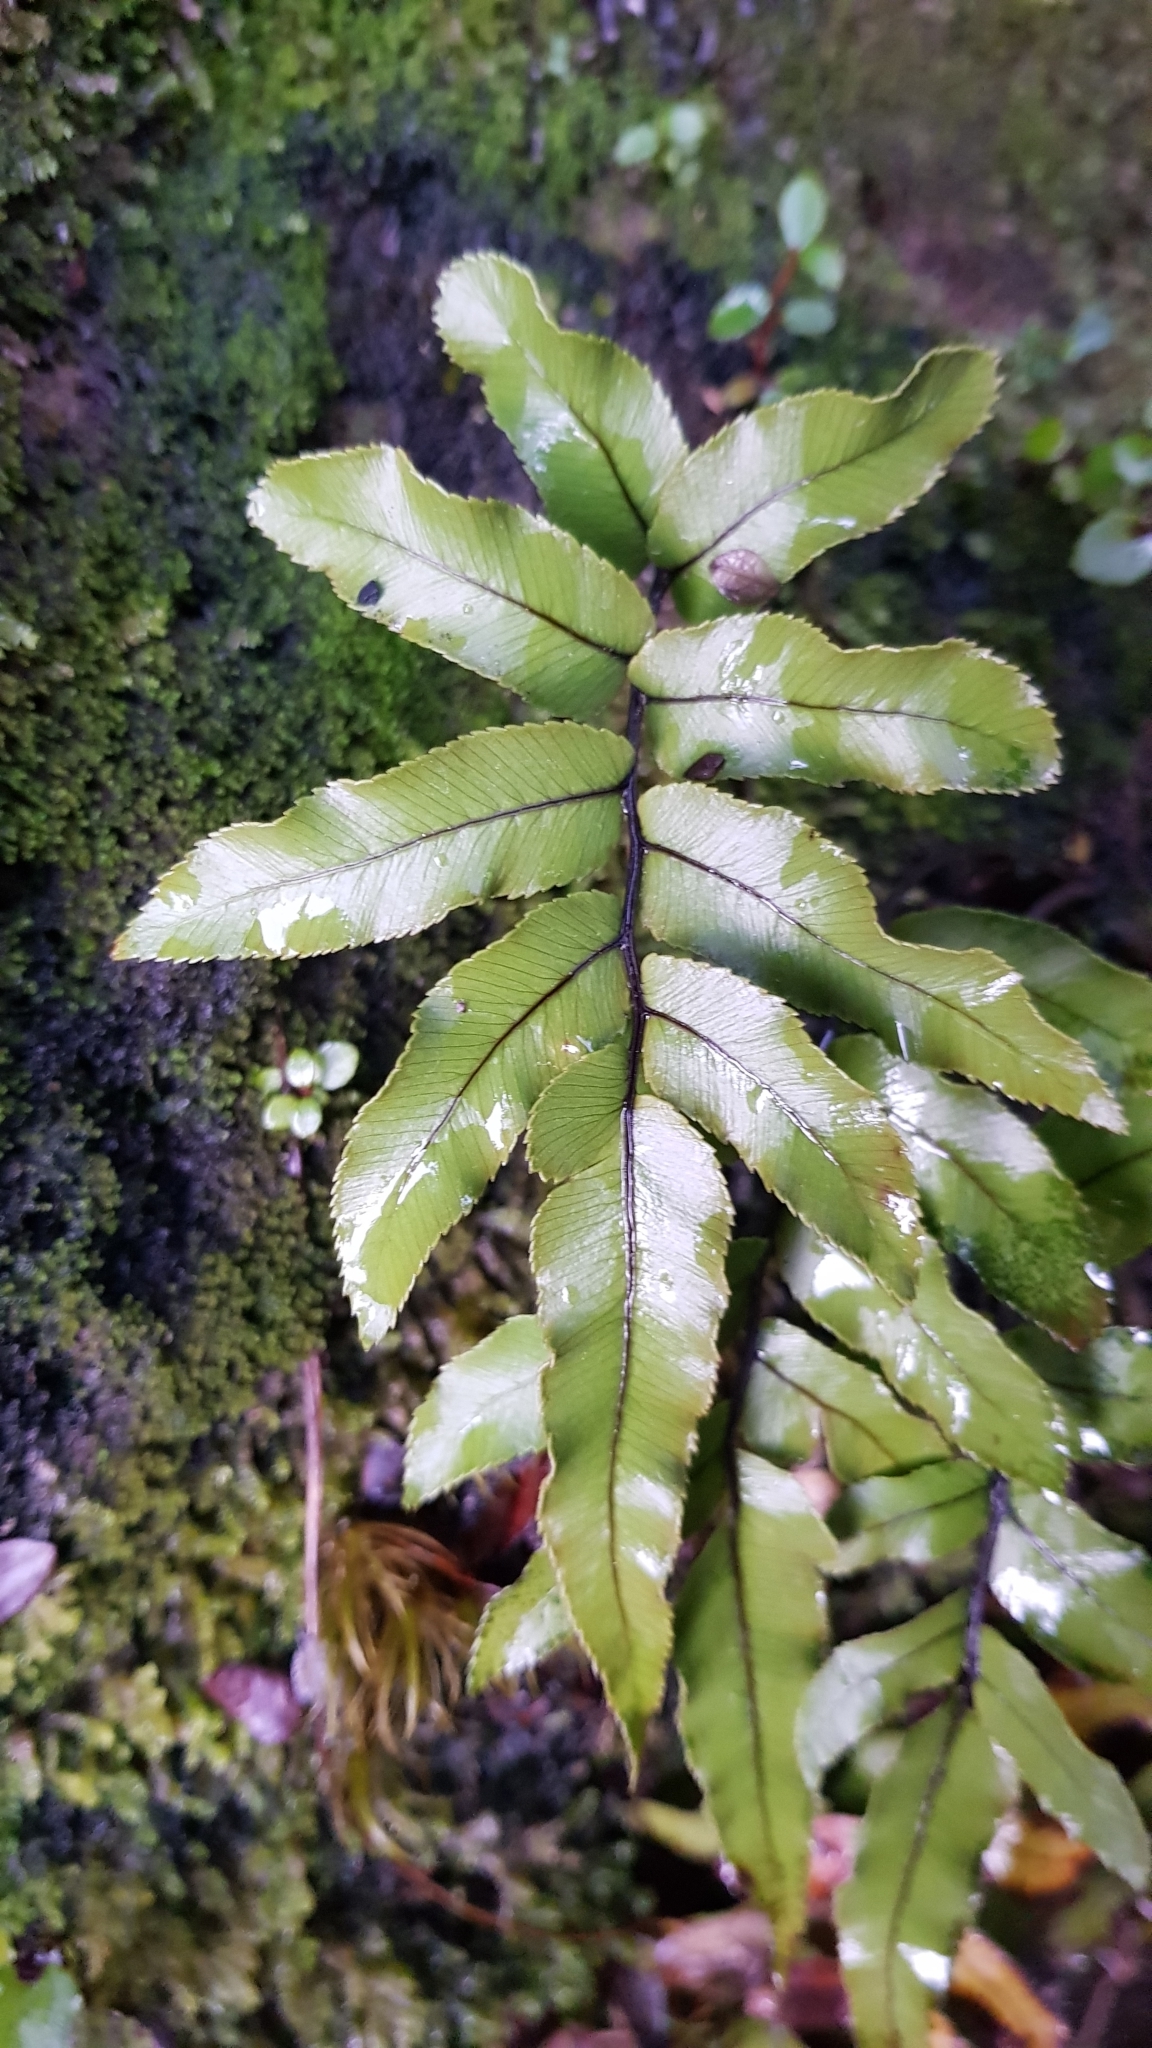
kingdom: Plantae
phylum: Tracheophyta
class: Polypodiopsida
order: Polypodiales
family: Blechnaceae
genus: Parablechnum
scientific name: Parablechnum procerum
